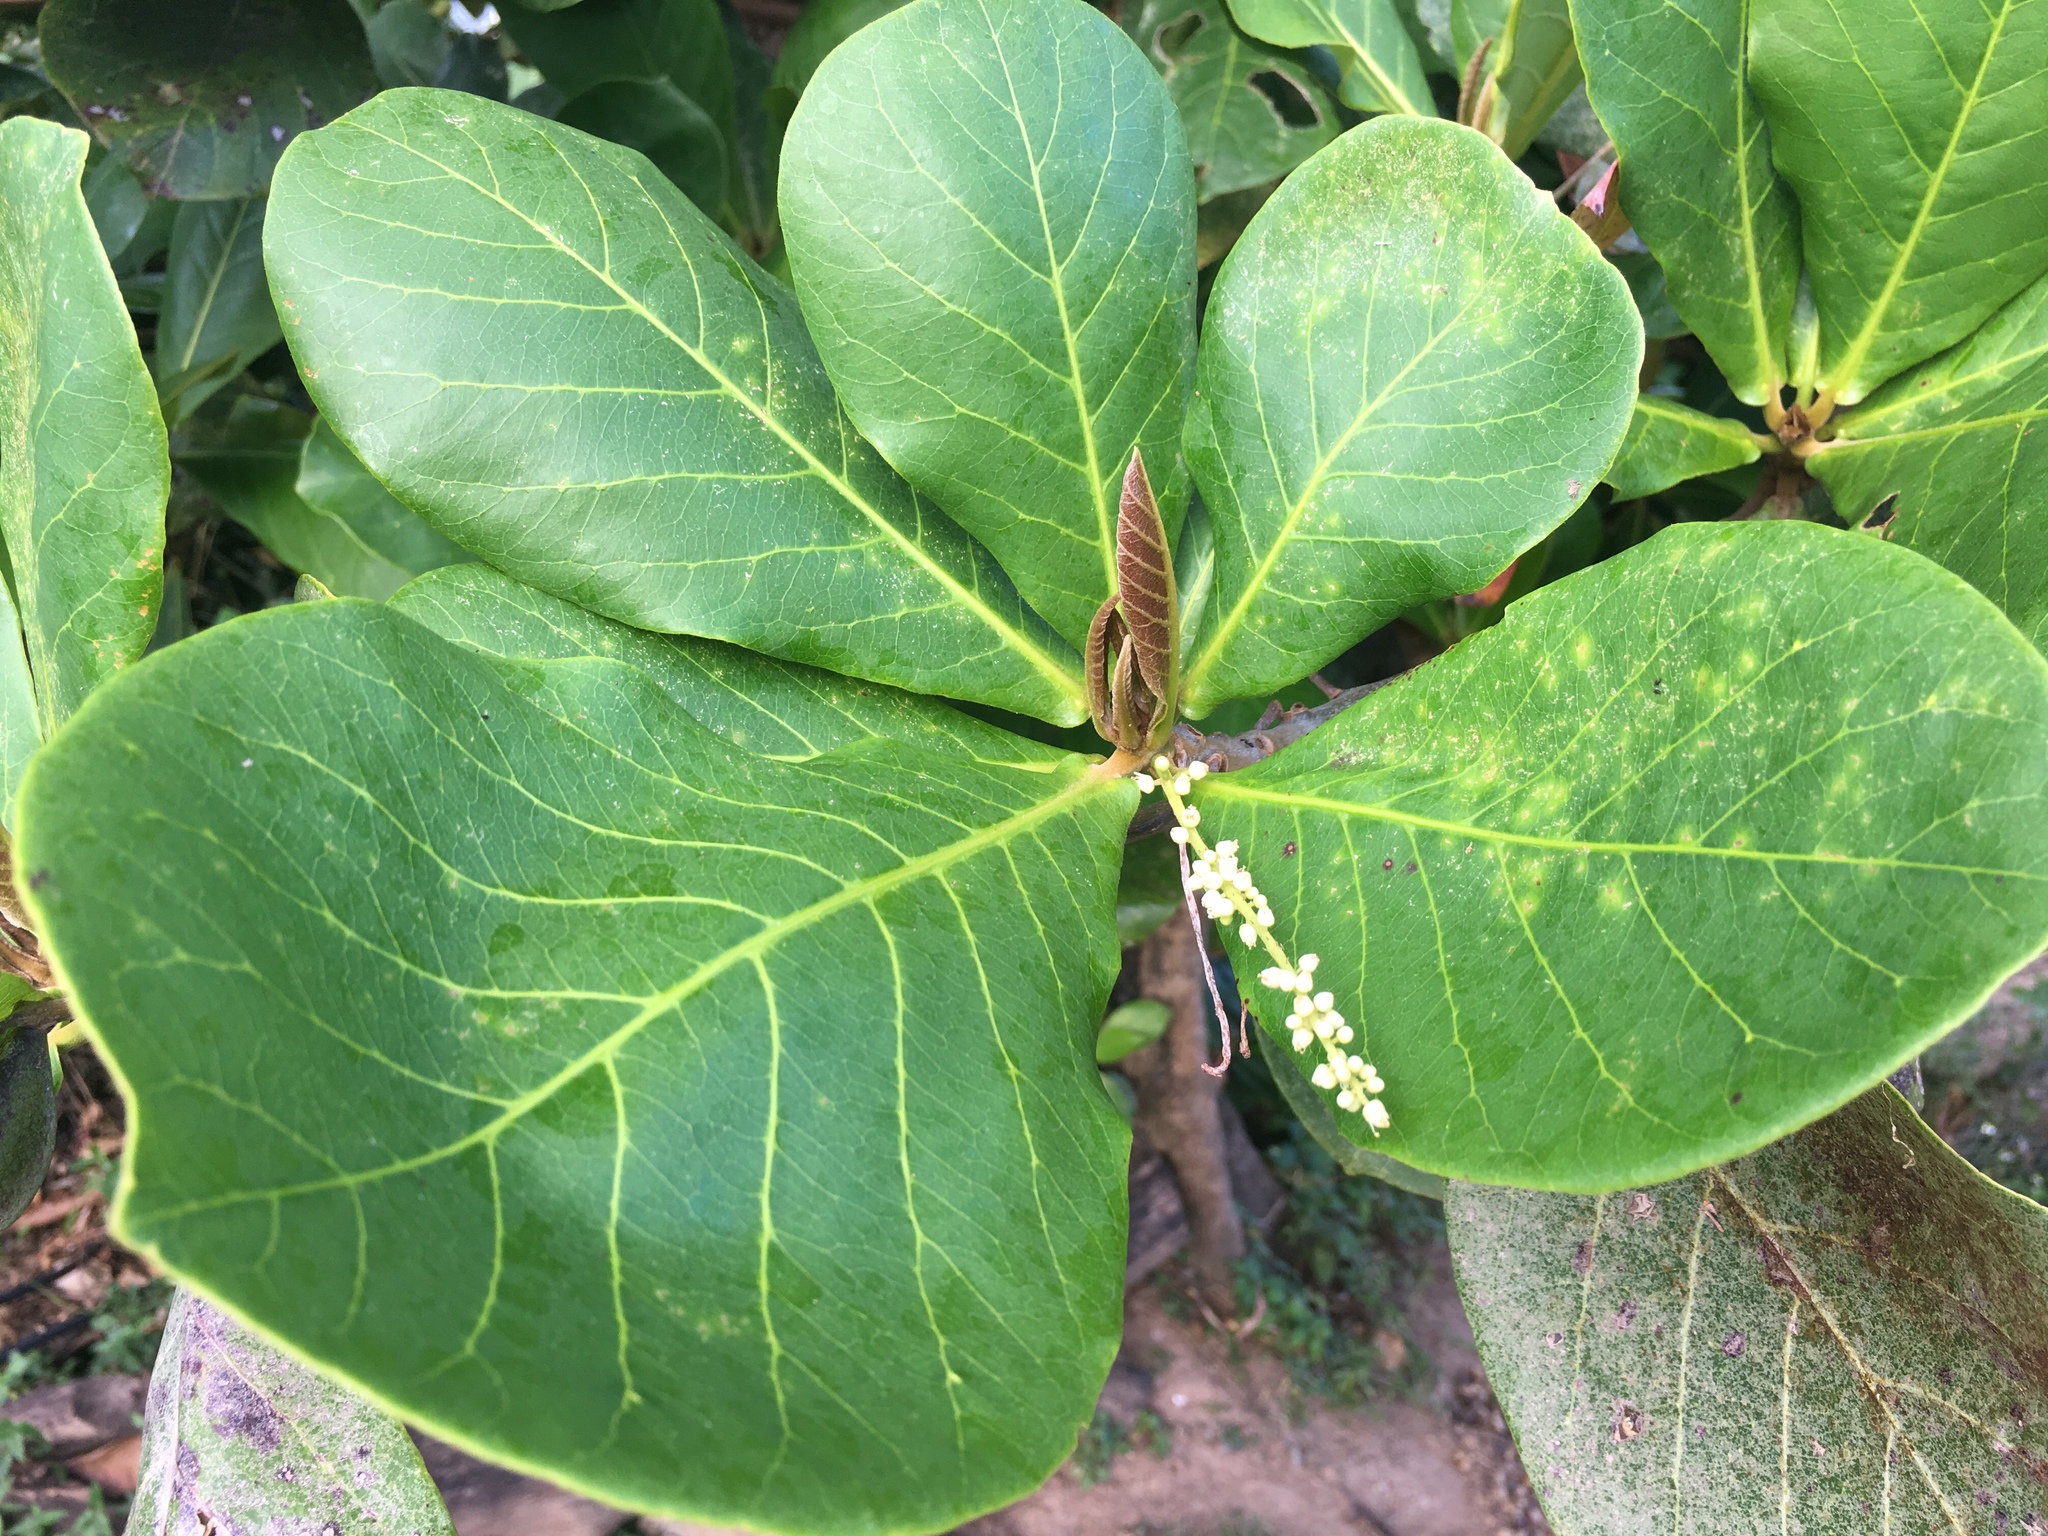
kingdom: Plantae
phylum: Tracheophyta
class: Magnoliopsida
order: Myrtales
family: Combretaceae
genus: Terminalia
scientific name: Terminalia catappa
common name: Tropical almond
